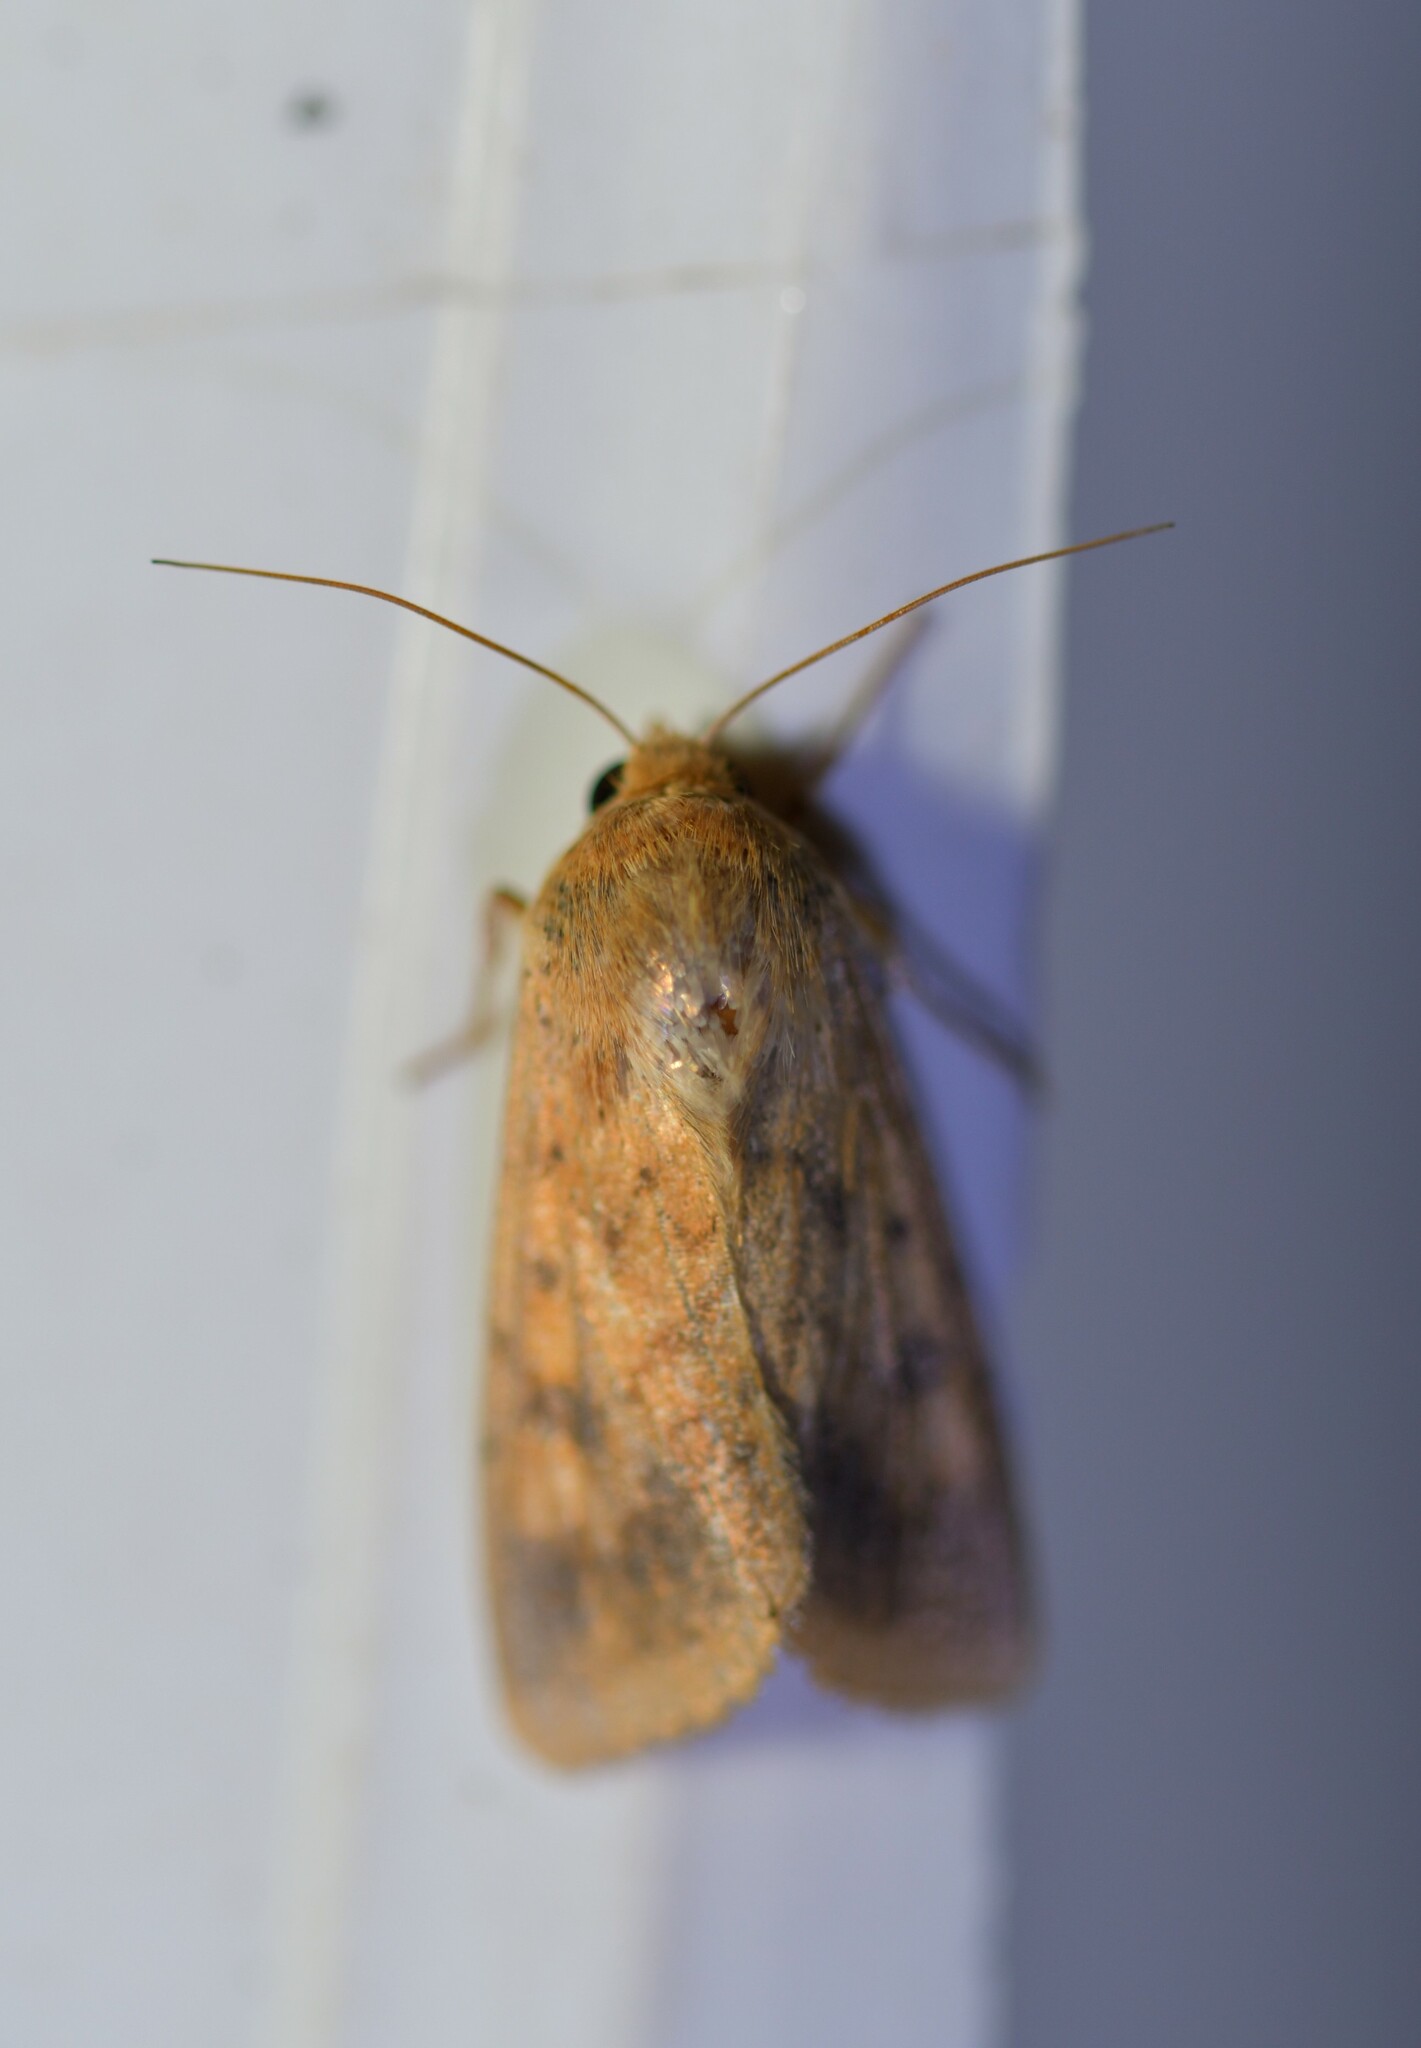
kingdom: Animalia
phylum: Arthropoda
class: Insecta
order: Lepidoptera
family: Noctuidae
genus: Helicoverpa
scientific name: Helicoverpa armigera
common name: Cotton bollworm
